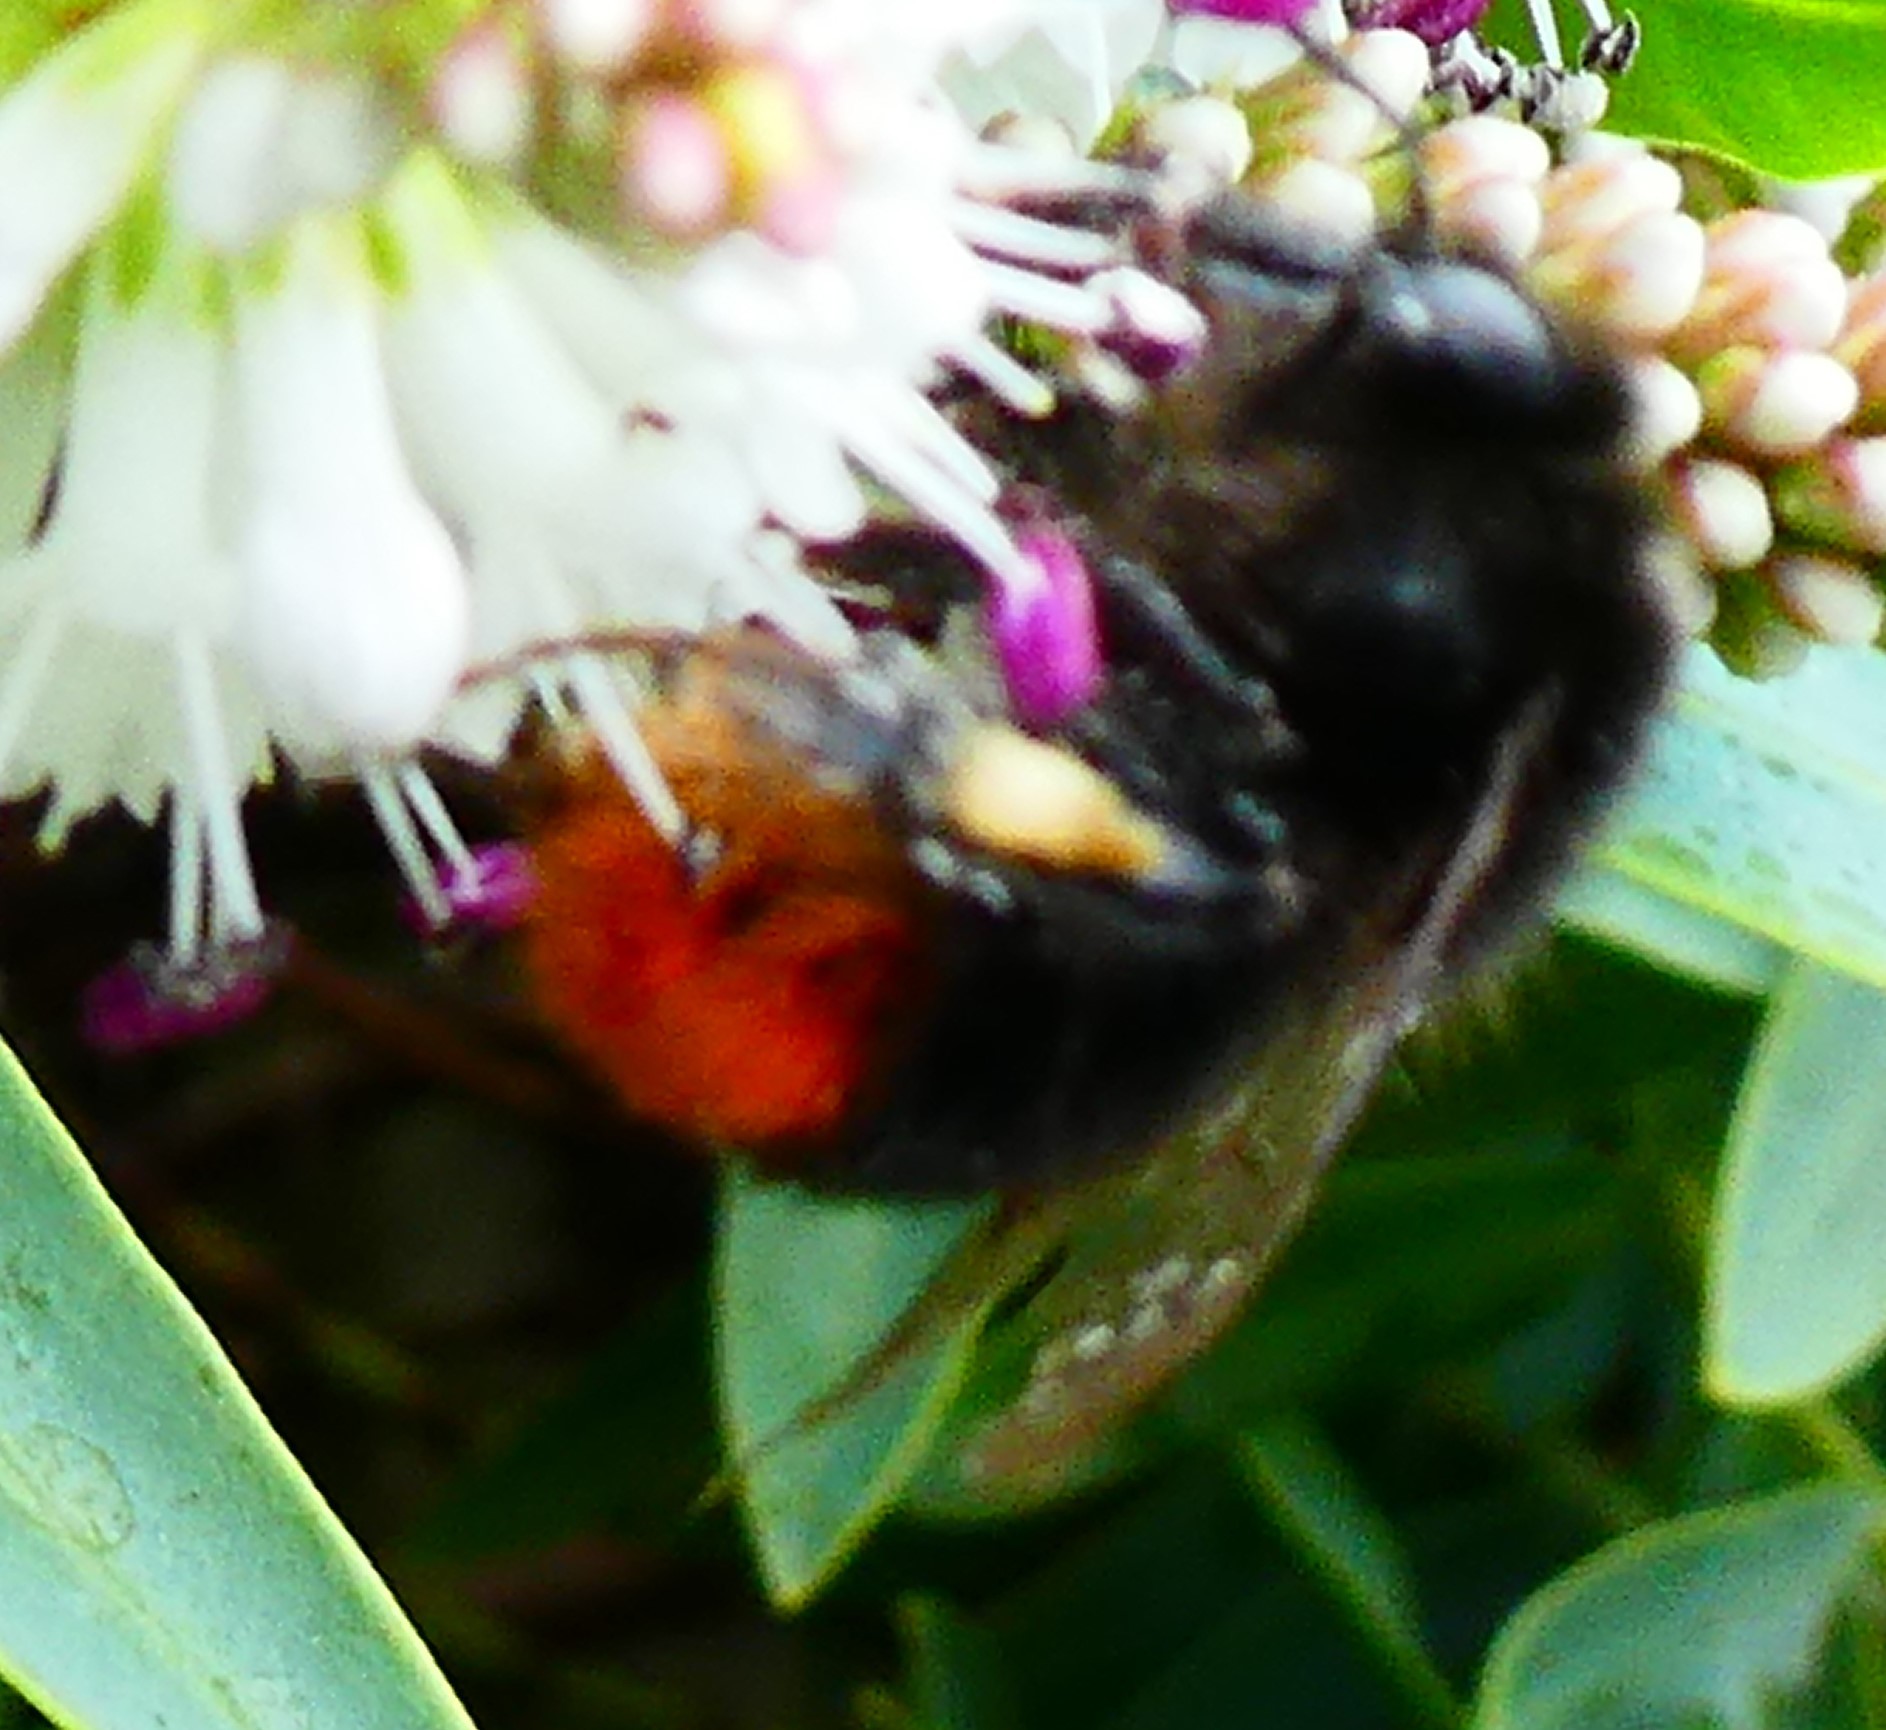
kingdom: Animalia
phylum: Arthropoda
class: Insecta
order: Hymenoptera
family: Apidae
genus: Bombus
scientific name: Bombus lapidarius
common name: Large red-tailed humble-bee
